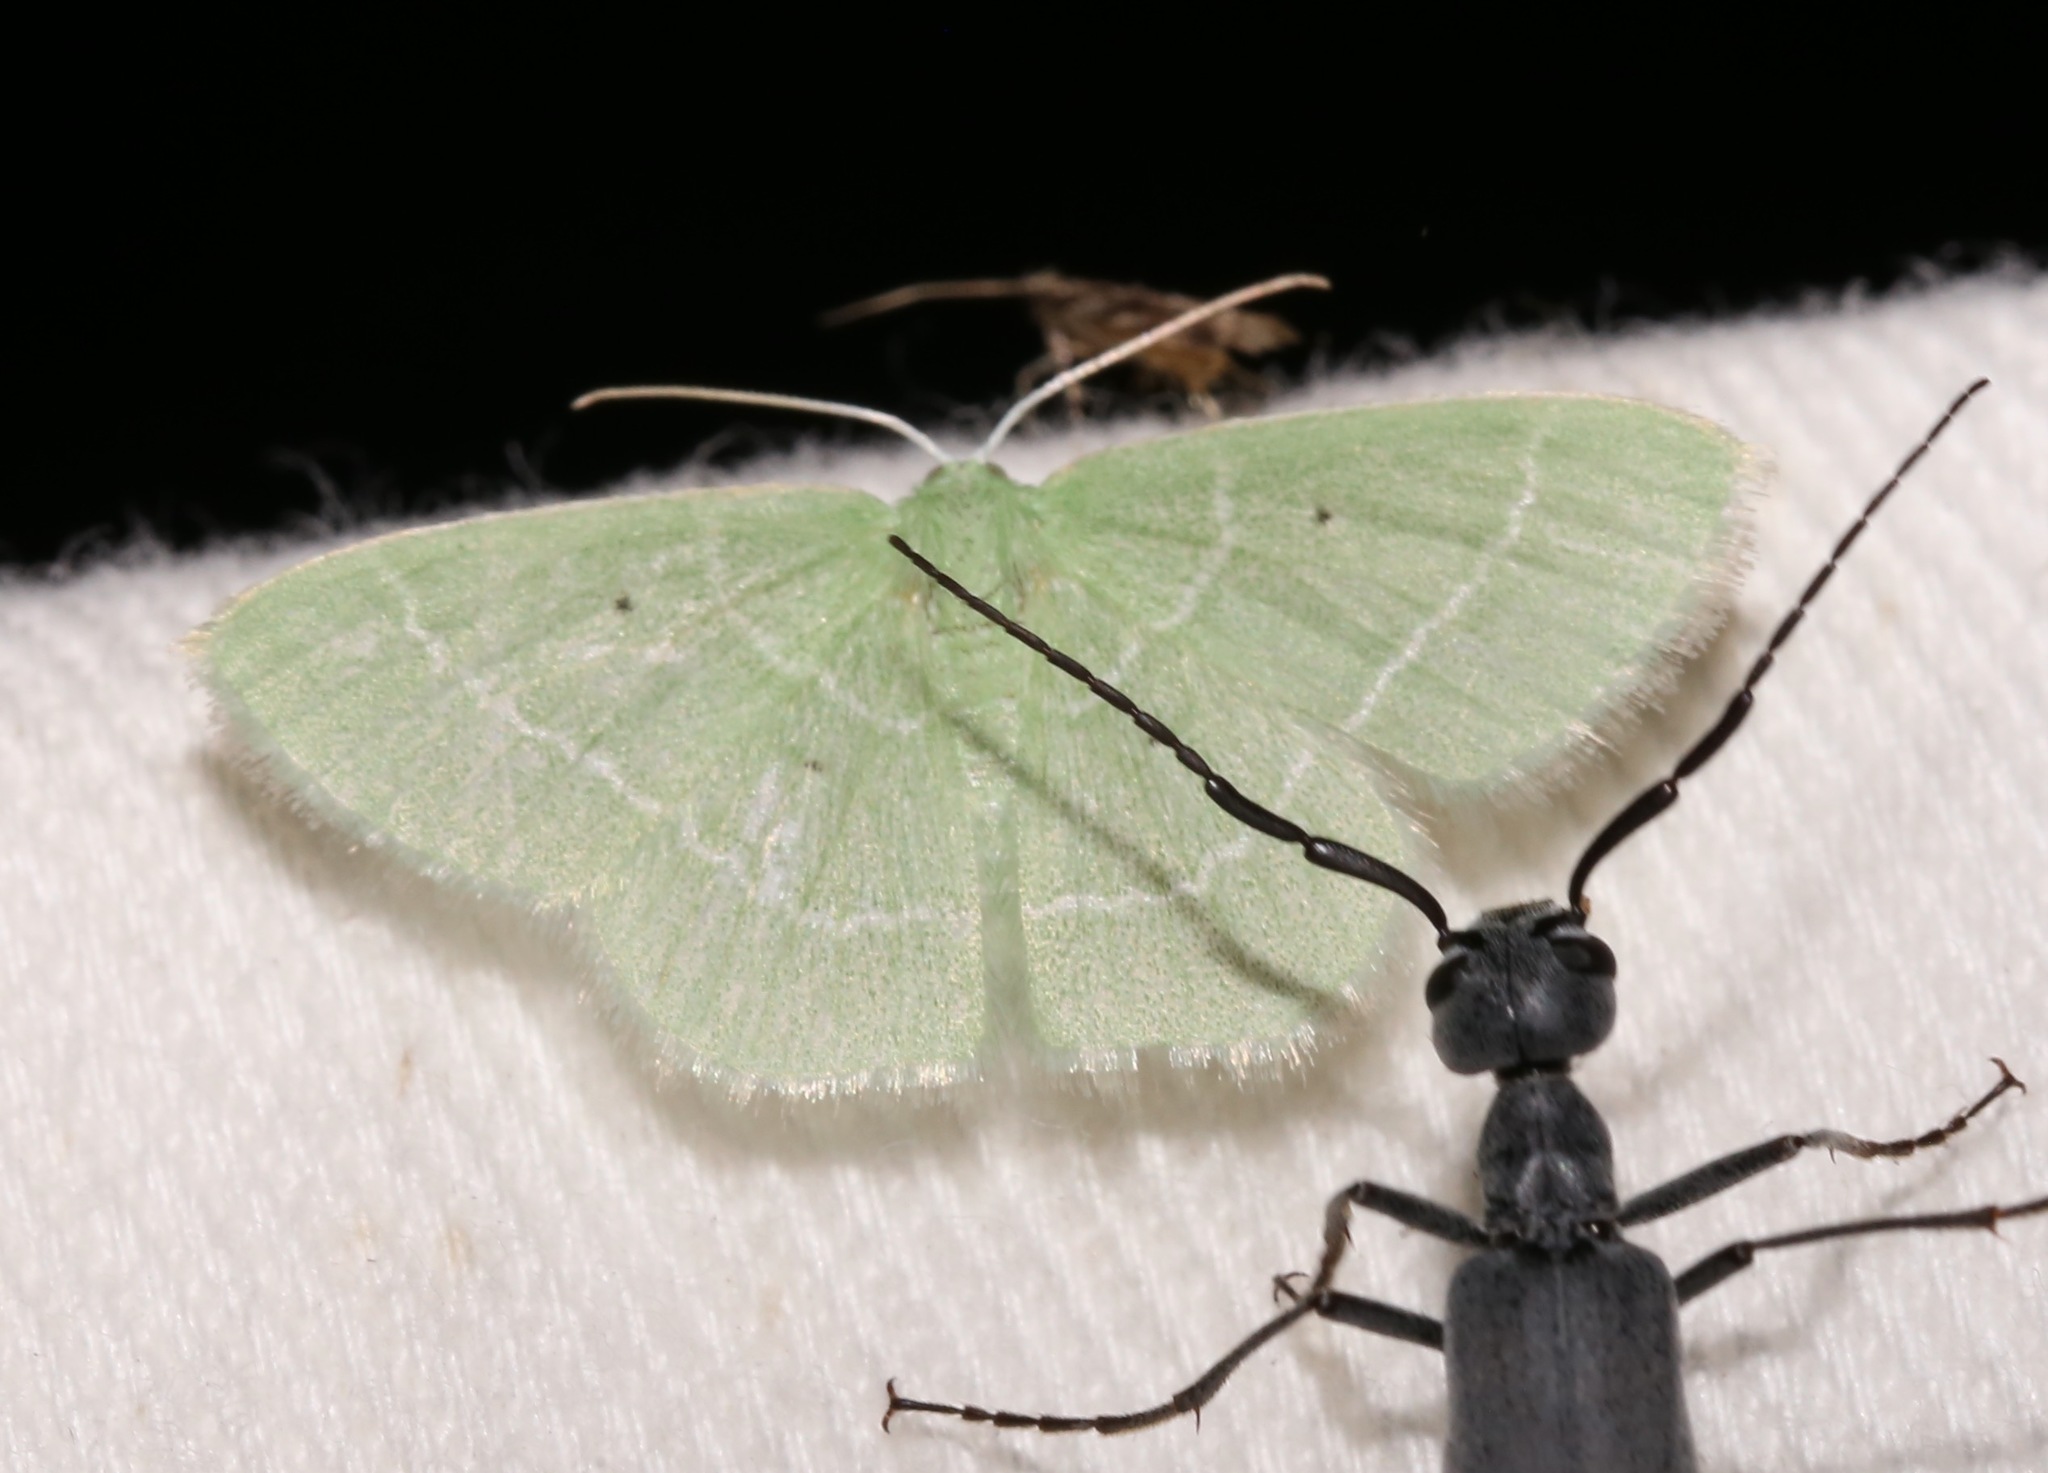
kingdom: Animalia
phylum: Arthropoda
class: Insecta
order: Lepidoptera
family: Geometridae
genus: Nemoria
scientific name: Nemoria elfa
